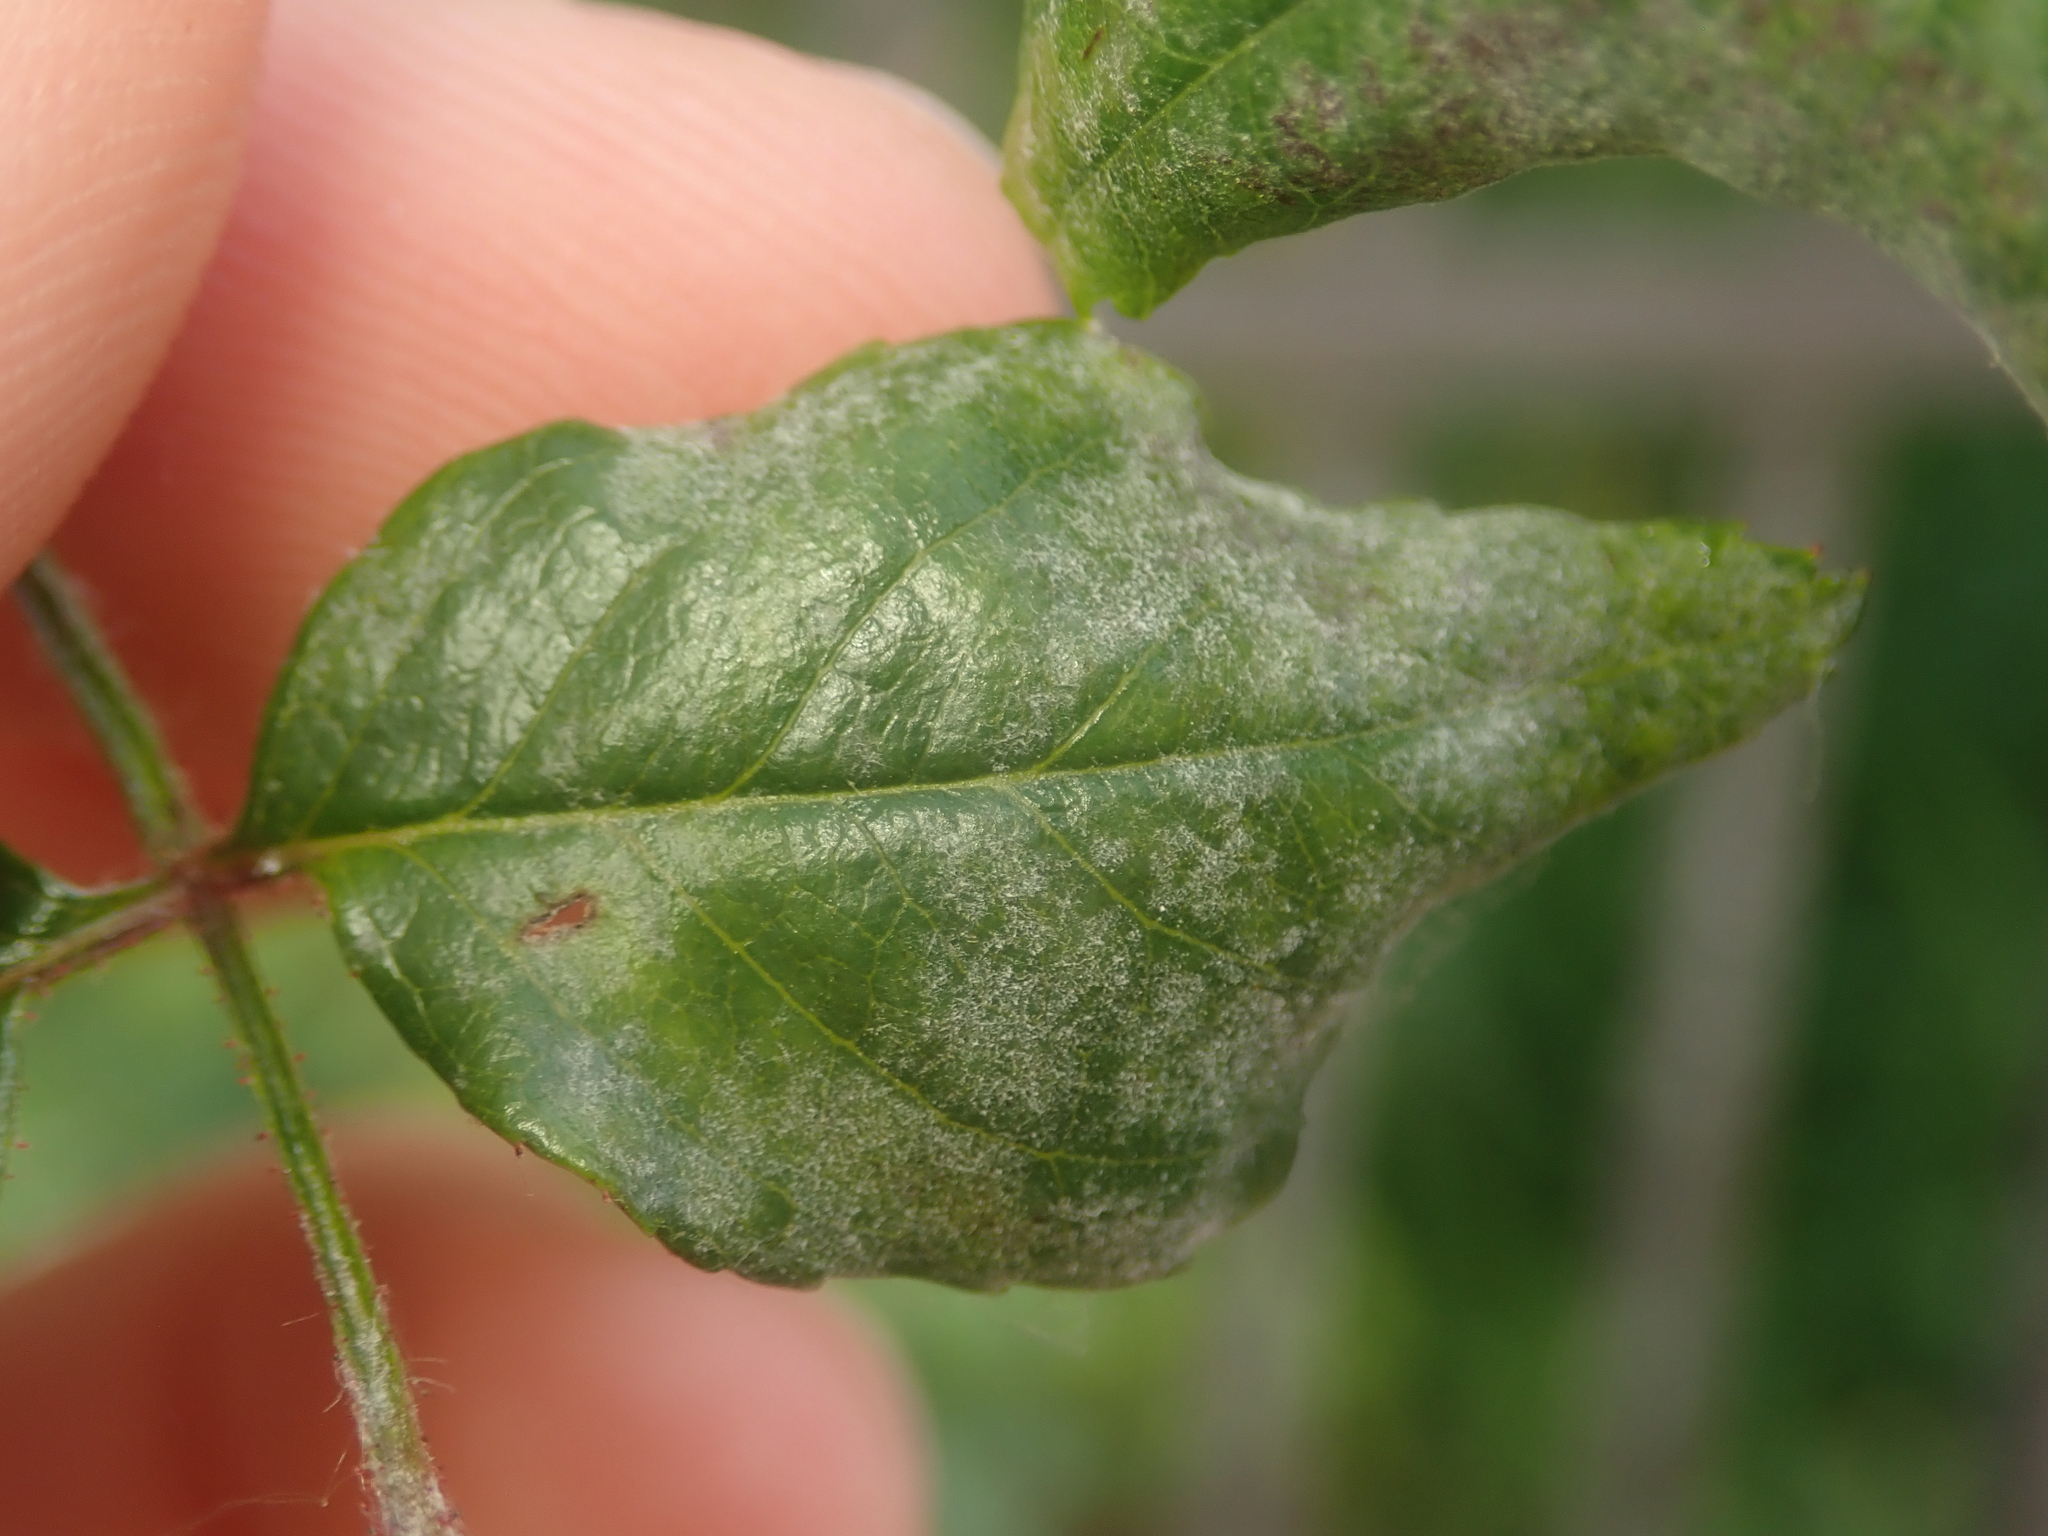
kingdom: Fungi
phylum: Ascomycota
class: Leotiomycetes
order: Helotiales
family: Erysiphaceae
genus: Podosphaera
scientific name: Podosphaera pannosa
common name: Rose mildew
